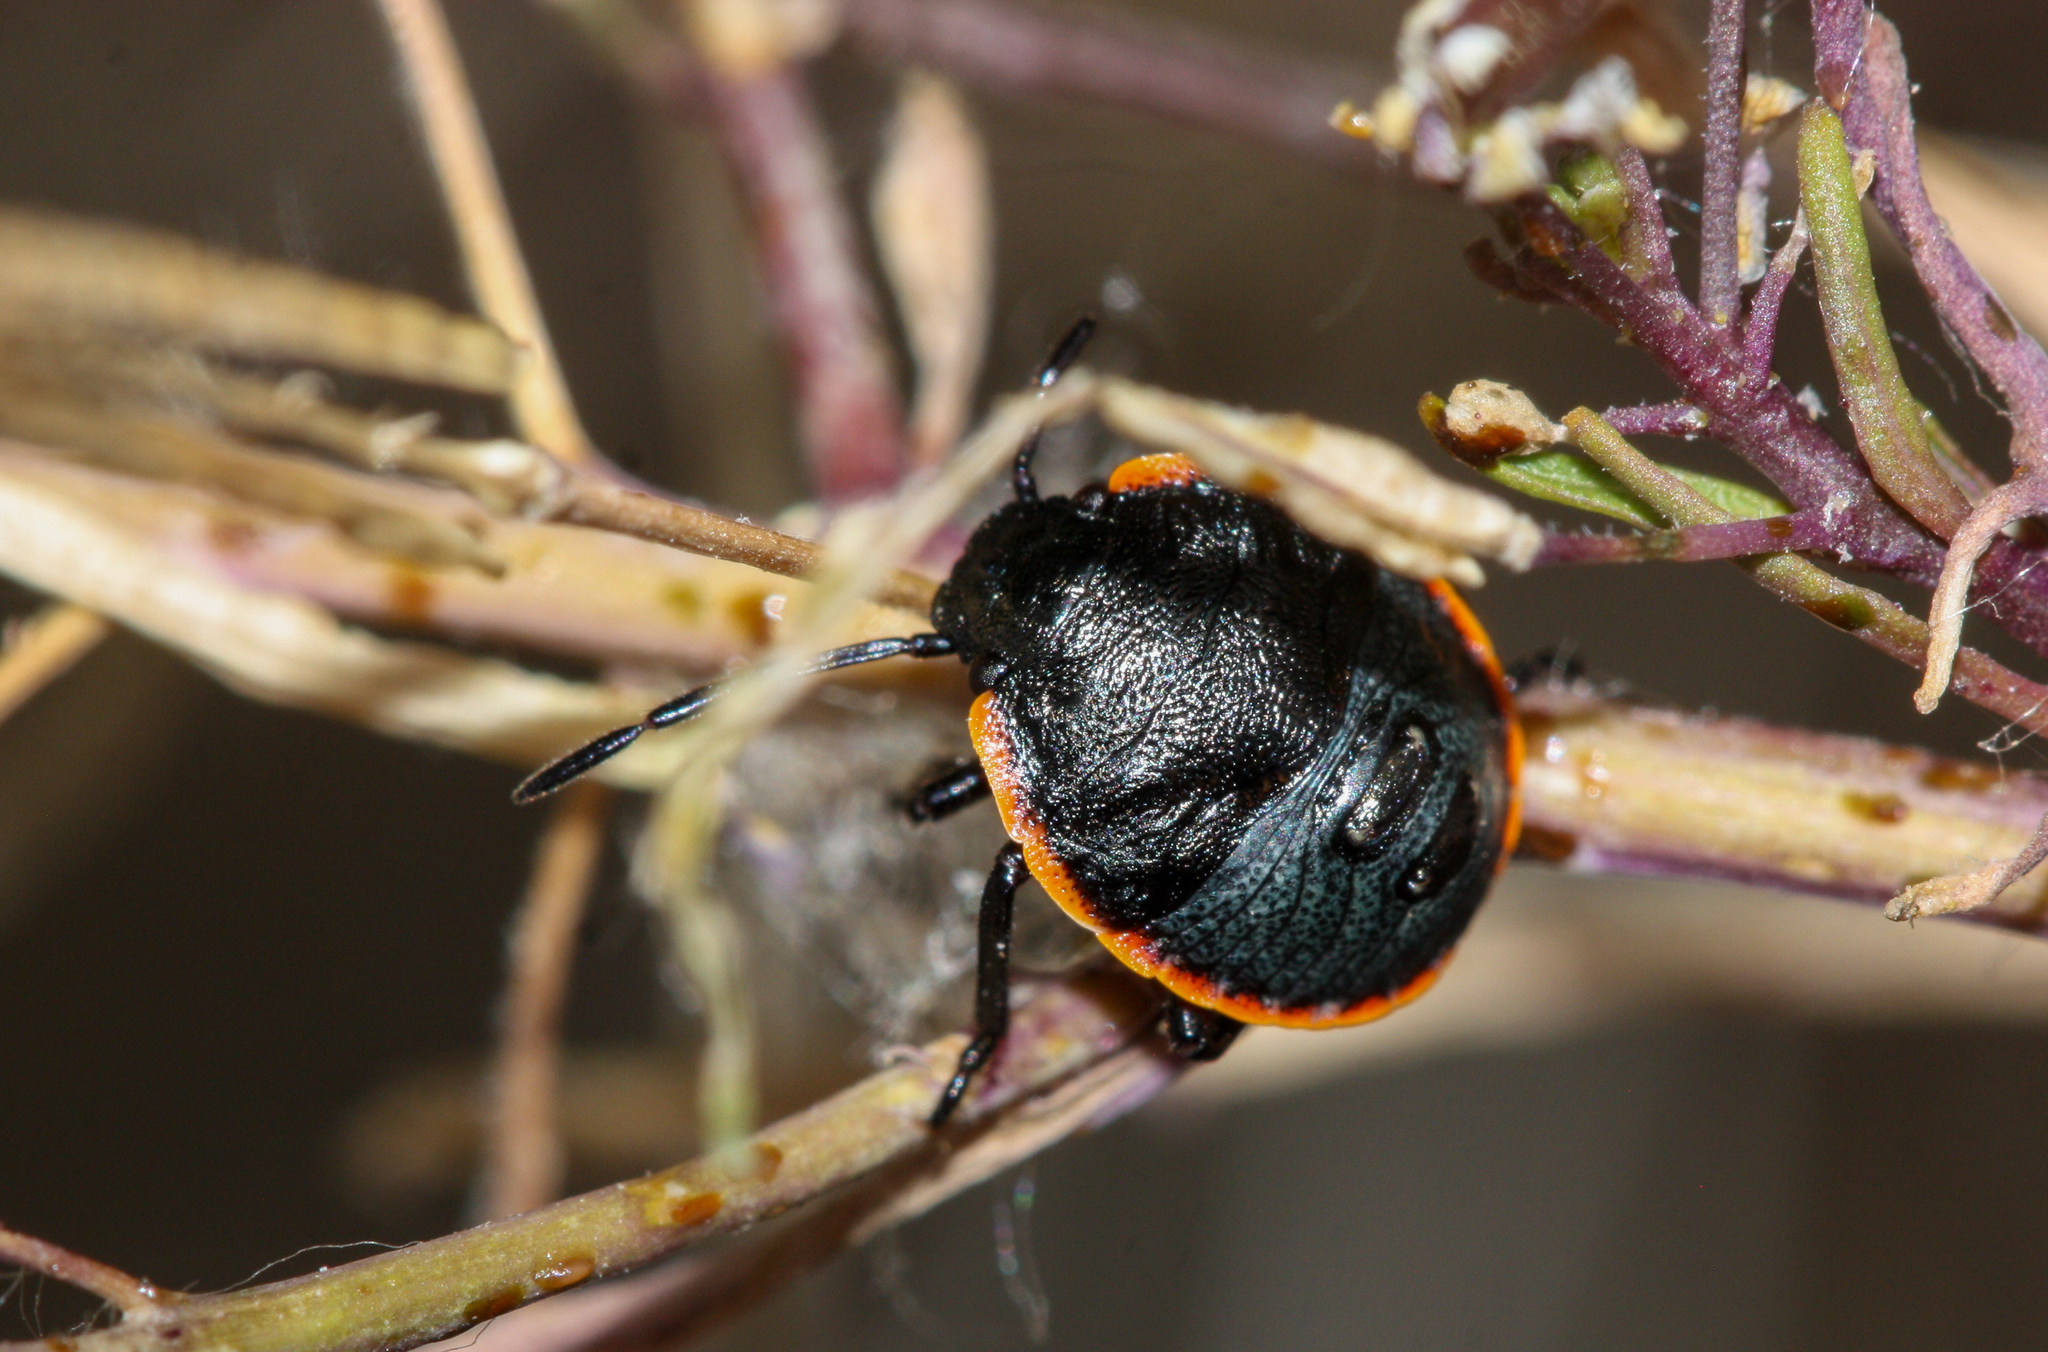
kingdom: Animalia
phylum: Arthropoda
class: Insecta
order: Hemiptera
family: Pentatomidae
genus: Chlorochroa
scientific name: Chlorochroa ligata
